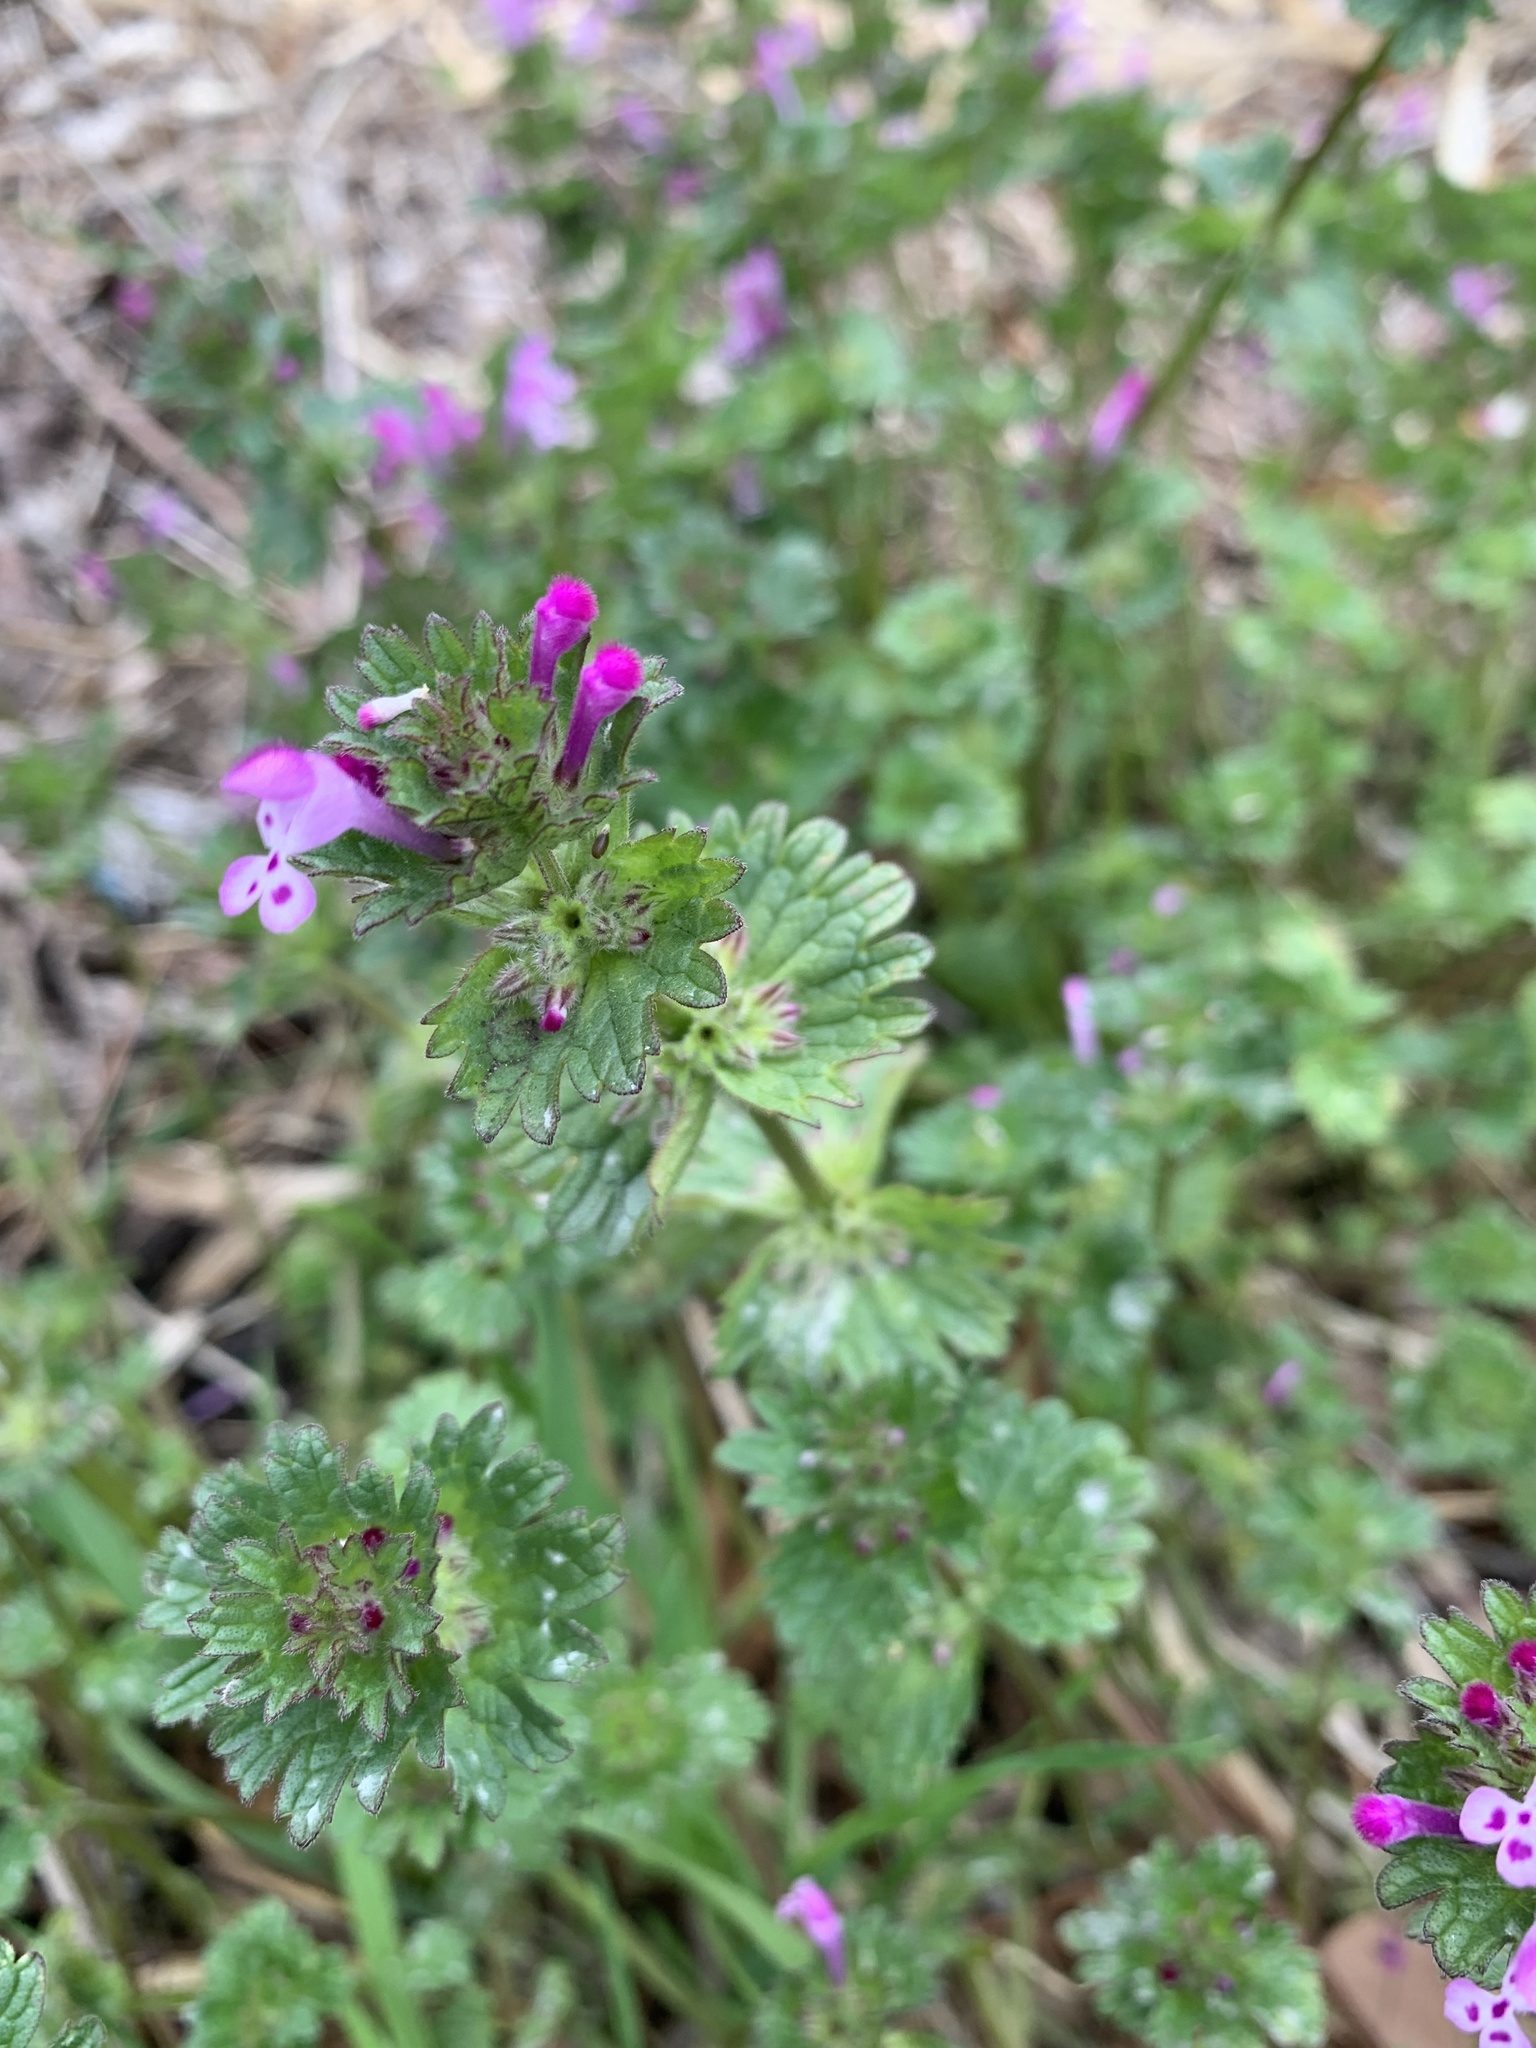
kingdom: Plantae
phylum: Tracheophyta
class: Magnoliopsida
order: Lamiales
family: Lamiaceae
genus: Lamium
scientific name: Lamium amplexicaule
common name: Henbit dead-nettle
